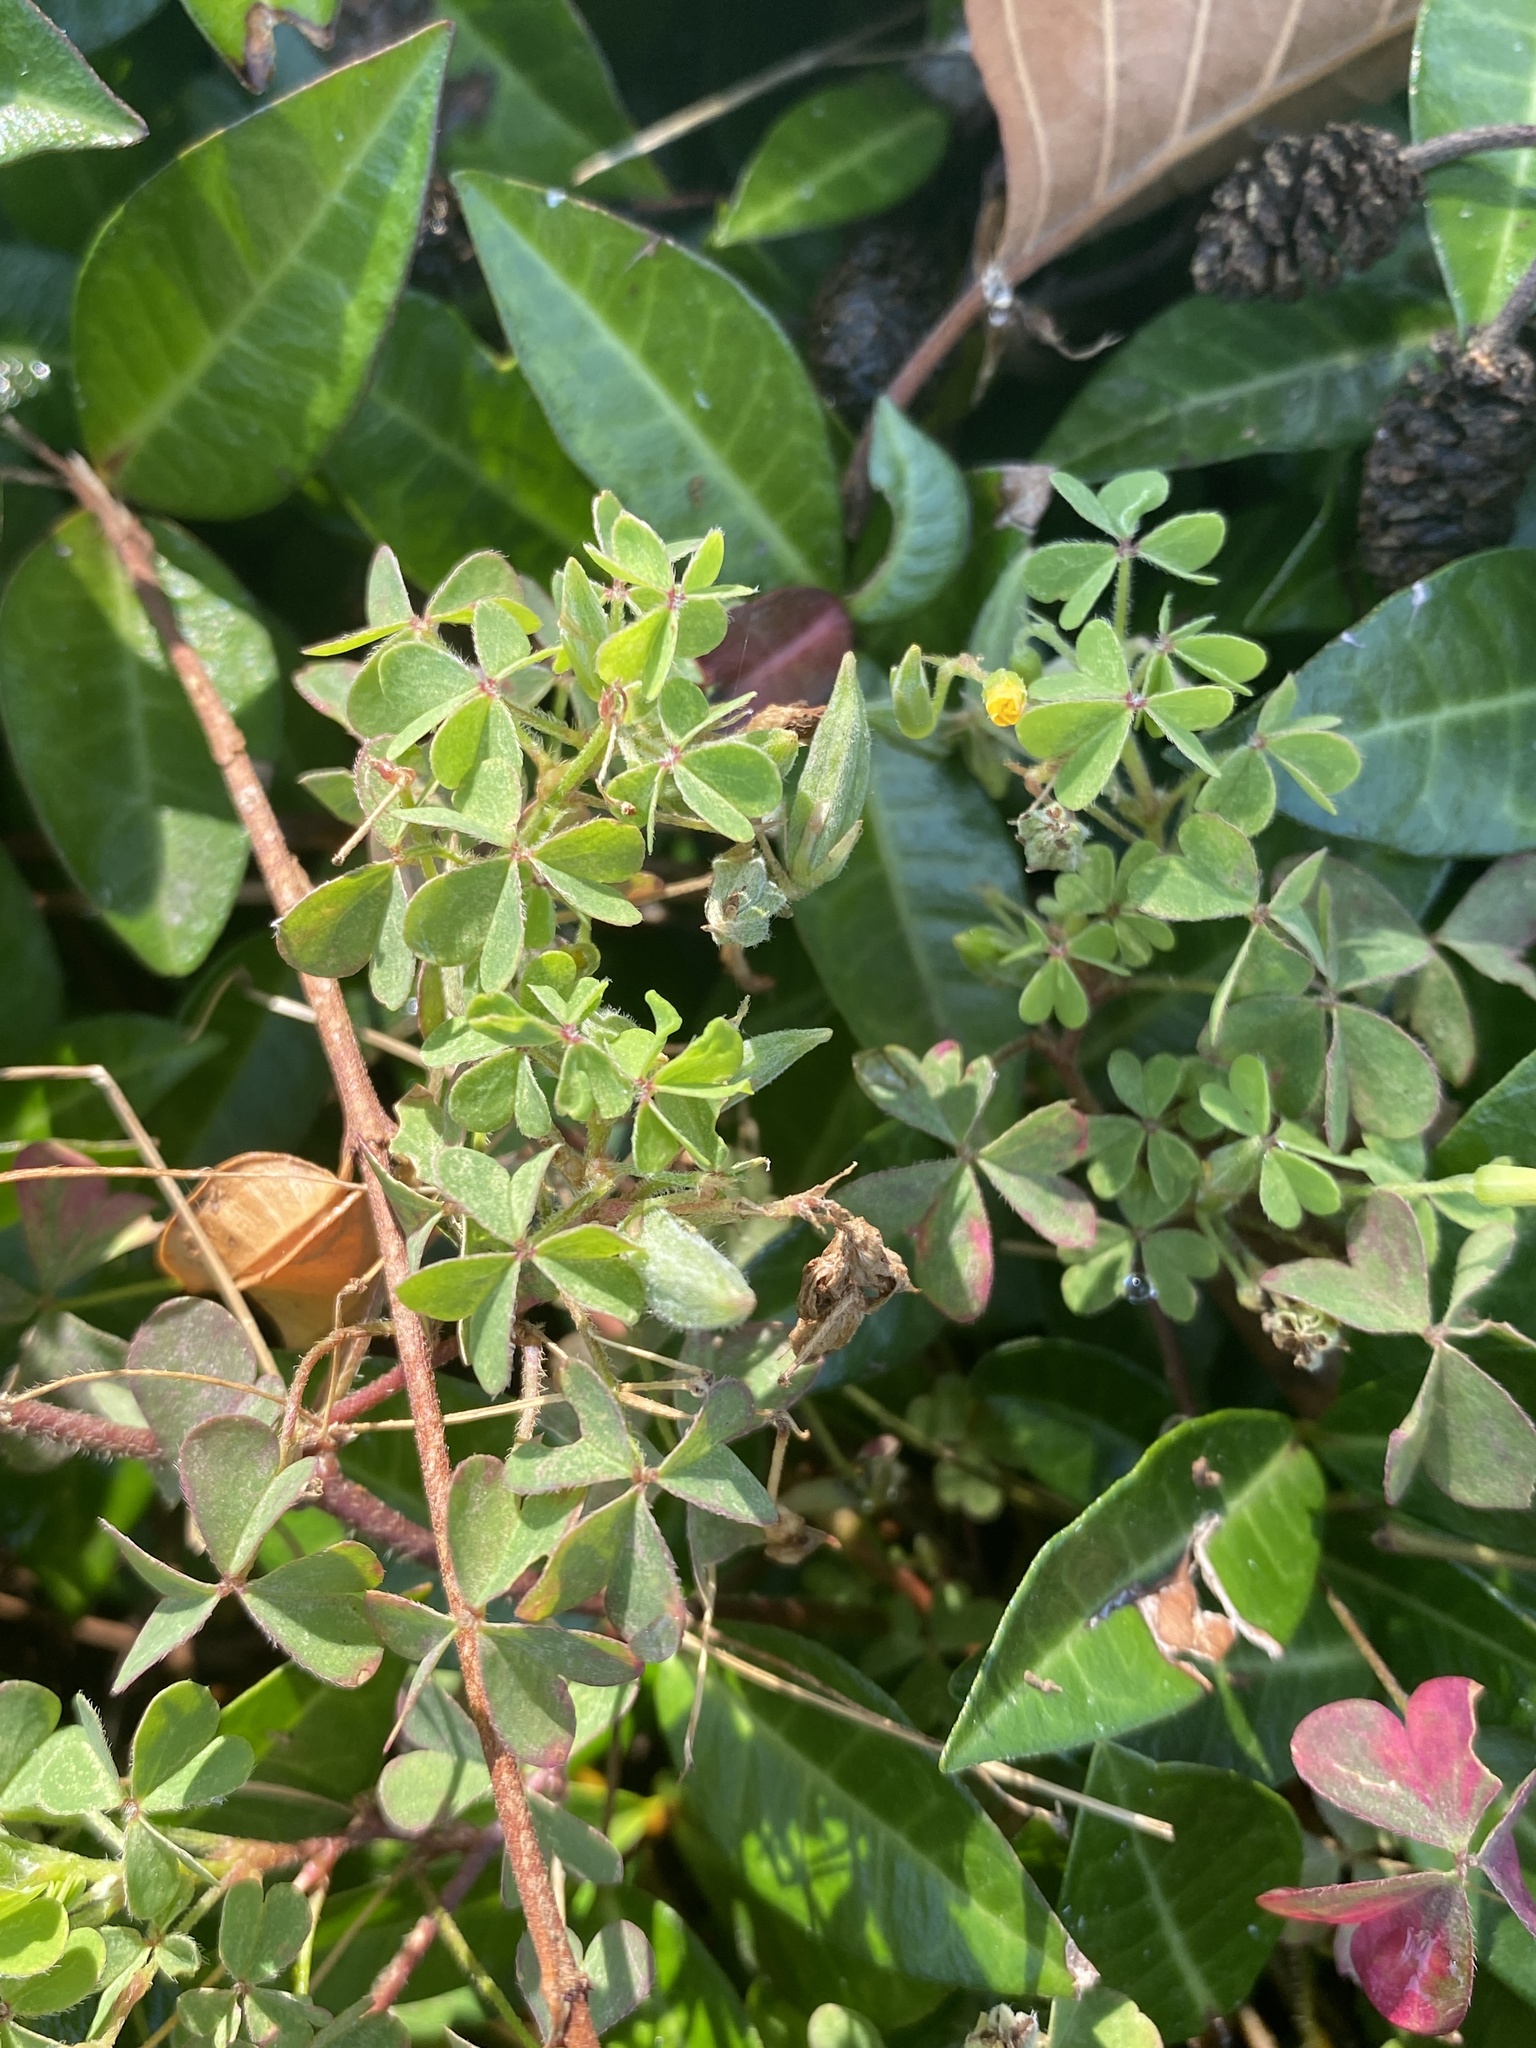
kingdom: Plantae
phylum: Tracheophyta
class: Magnoliopsida
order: Oxalidales
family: Oxalidaceae
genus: Oxalis
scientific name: Oxalis corniculata
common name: Procumbent yellow-sorrel
